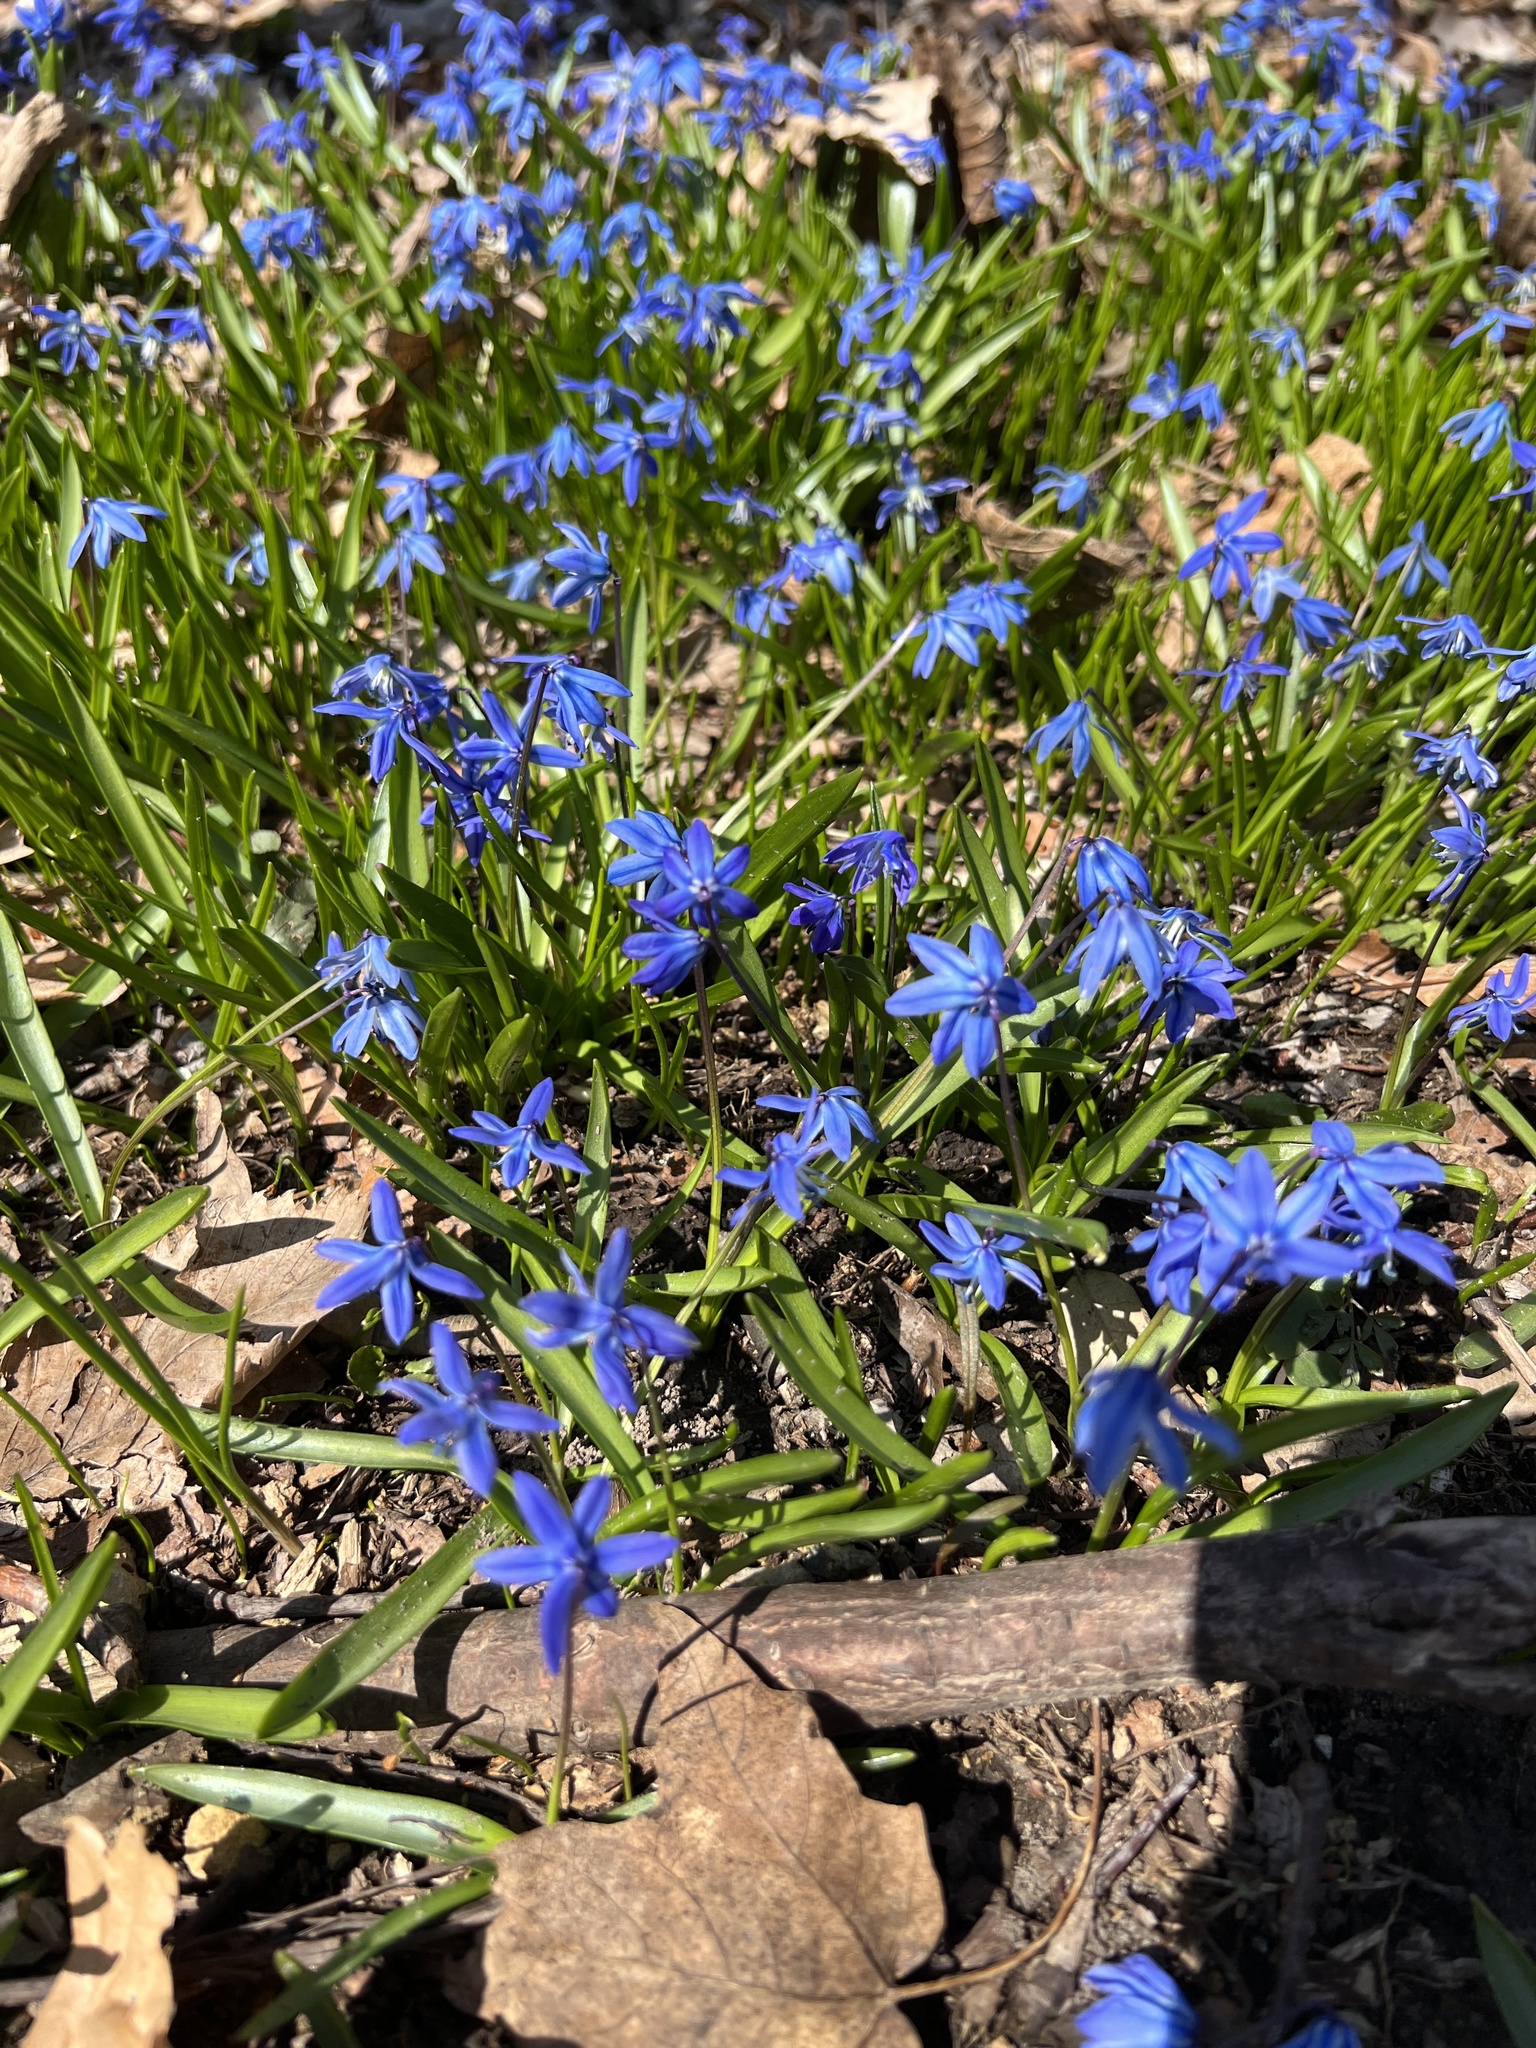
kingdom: Plantae
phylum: Tracheophyta
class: Liliopsida
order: Asparagales
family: Asparagaceae
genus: Scilla
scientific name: Scilla siberica
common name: Siberian squill
